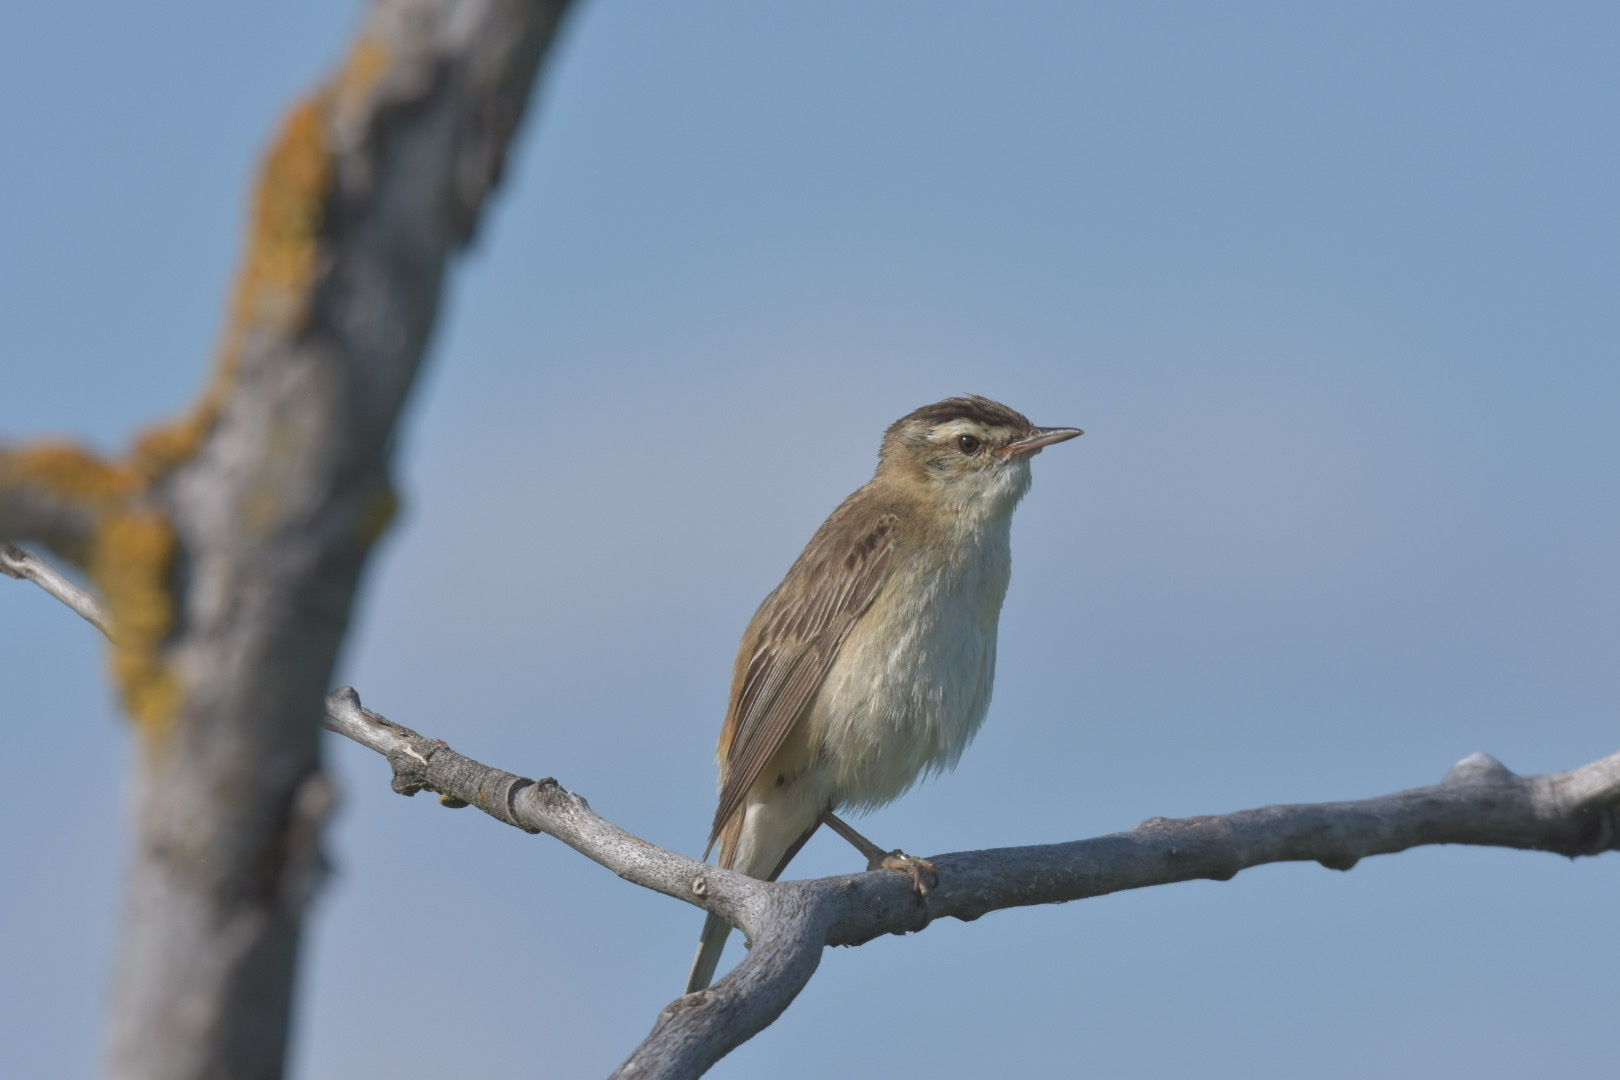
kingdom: Animalia
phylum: Chordata
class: Aves
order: Passeriformes
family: Acrocephalidae
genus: Acrocephalus
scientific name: Acrocephalus schoenobaenus
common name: Sedge warbler
